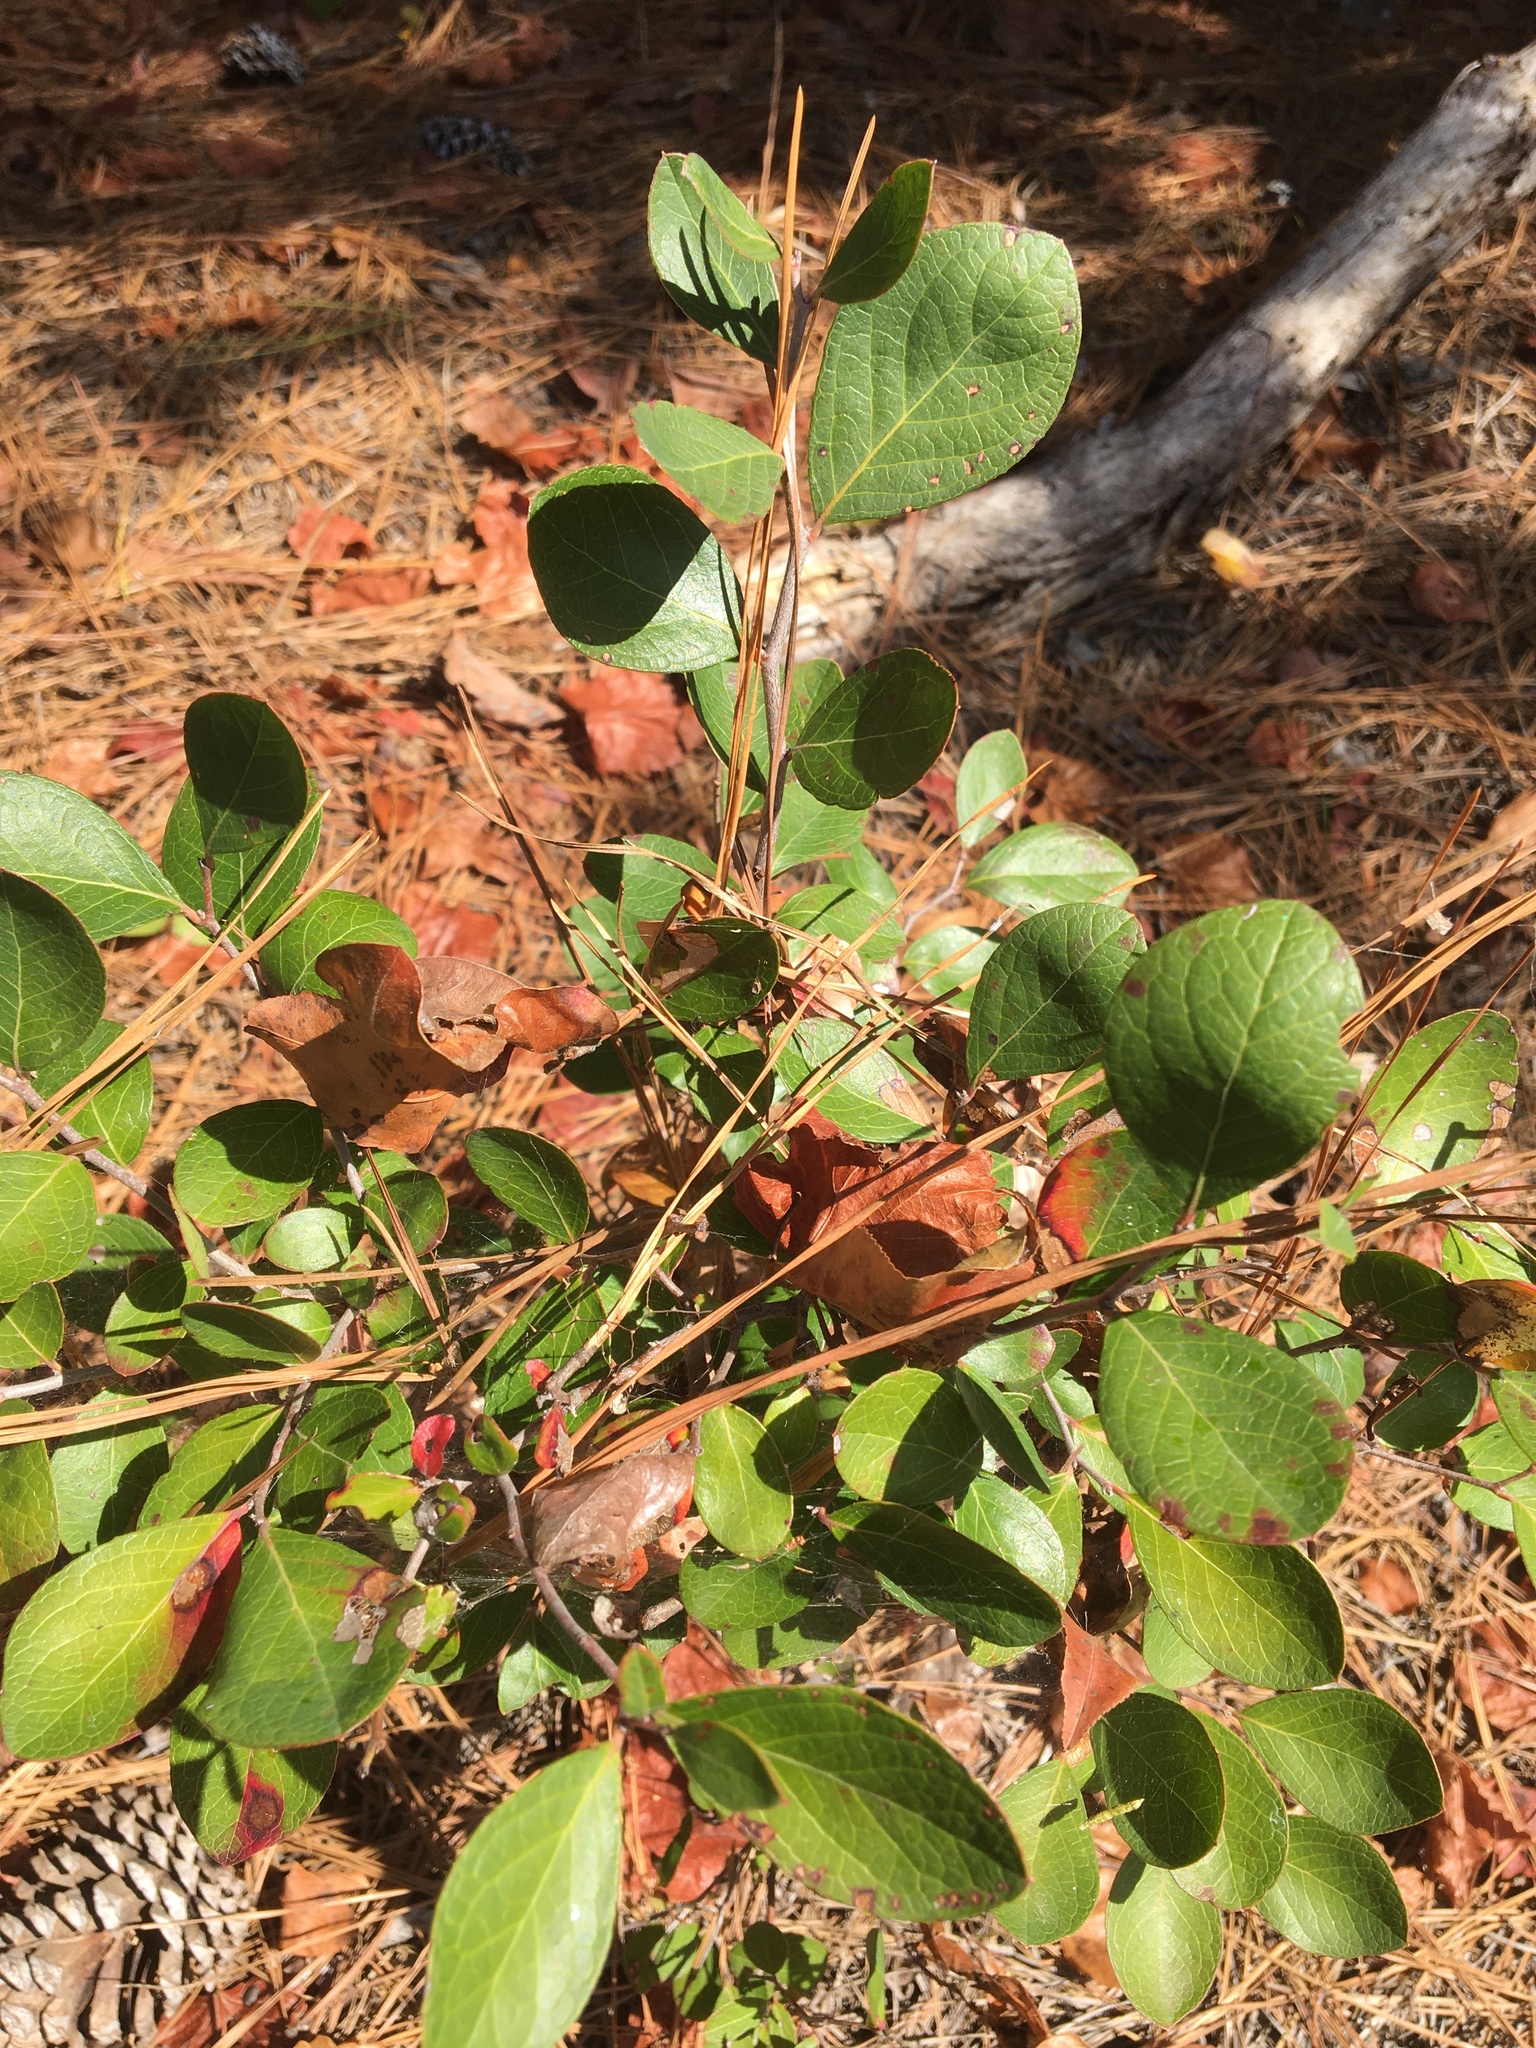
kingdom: Plantae
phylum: Tracheophyta
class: Magnoliopsida
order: Ericales
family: Ericaceae
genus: Vaccinium
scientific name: Vaccinium arboreum
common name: Farkleberry
